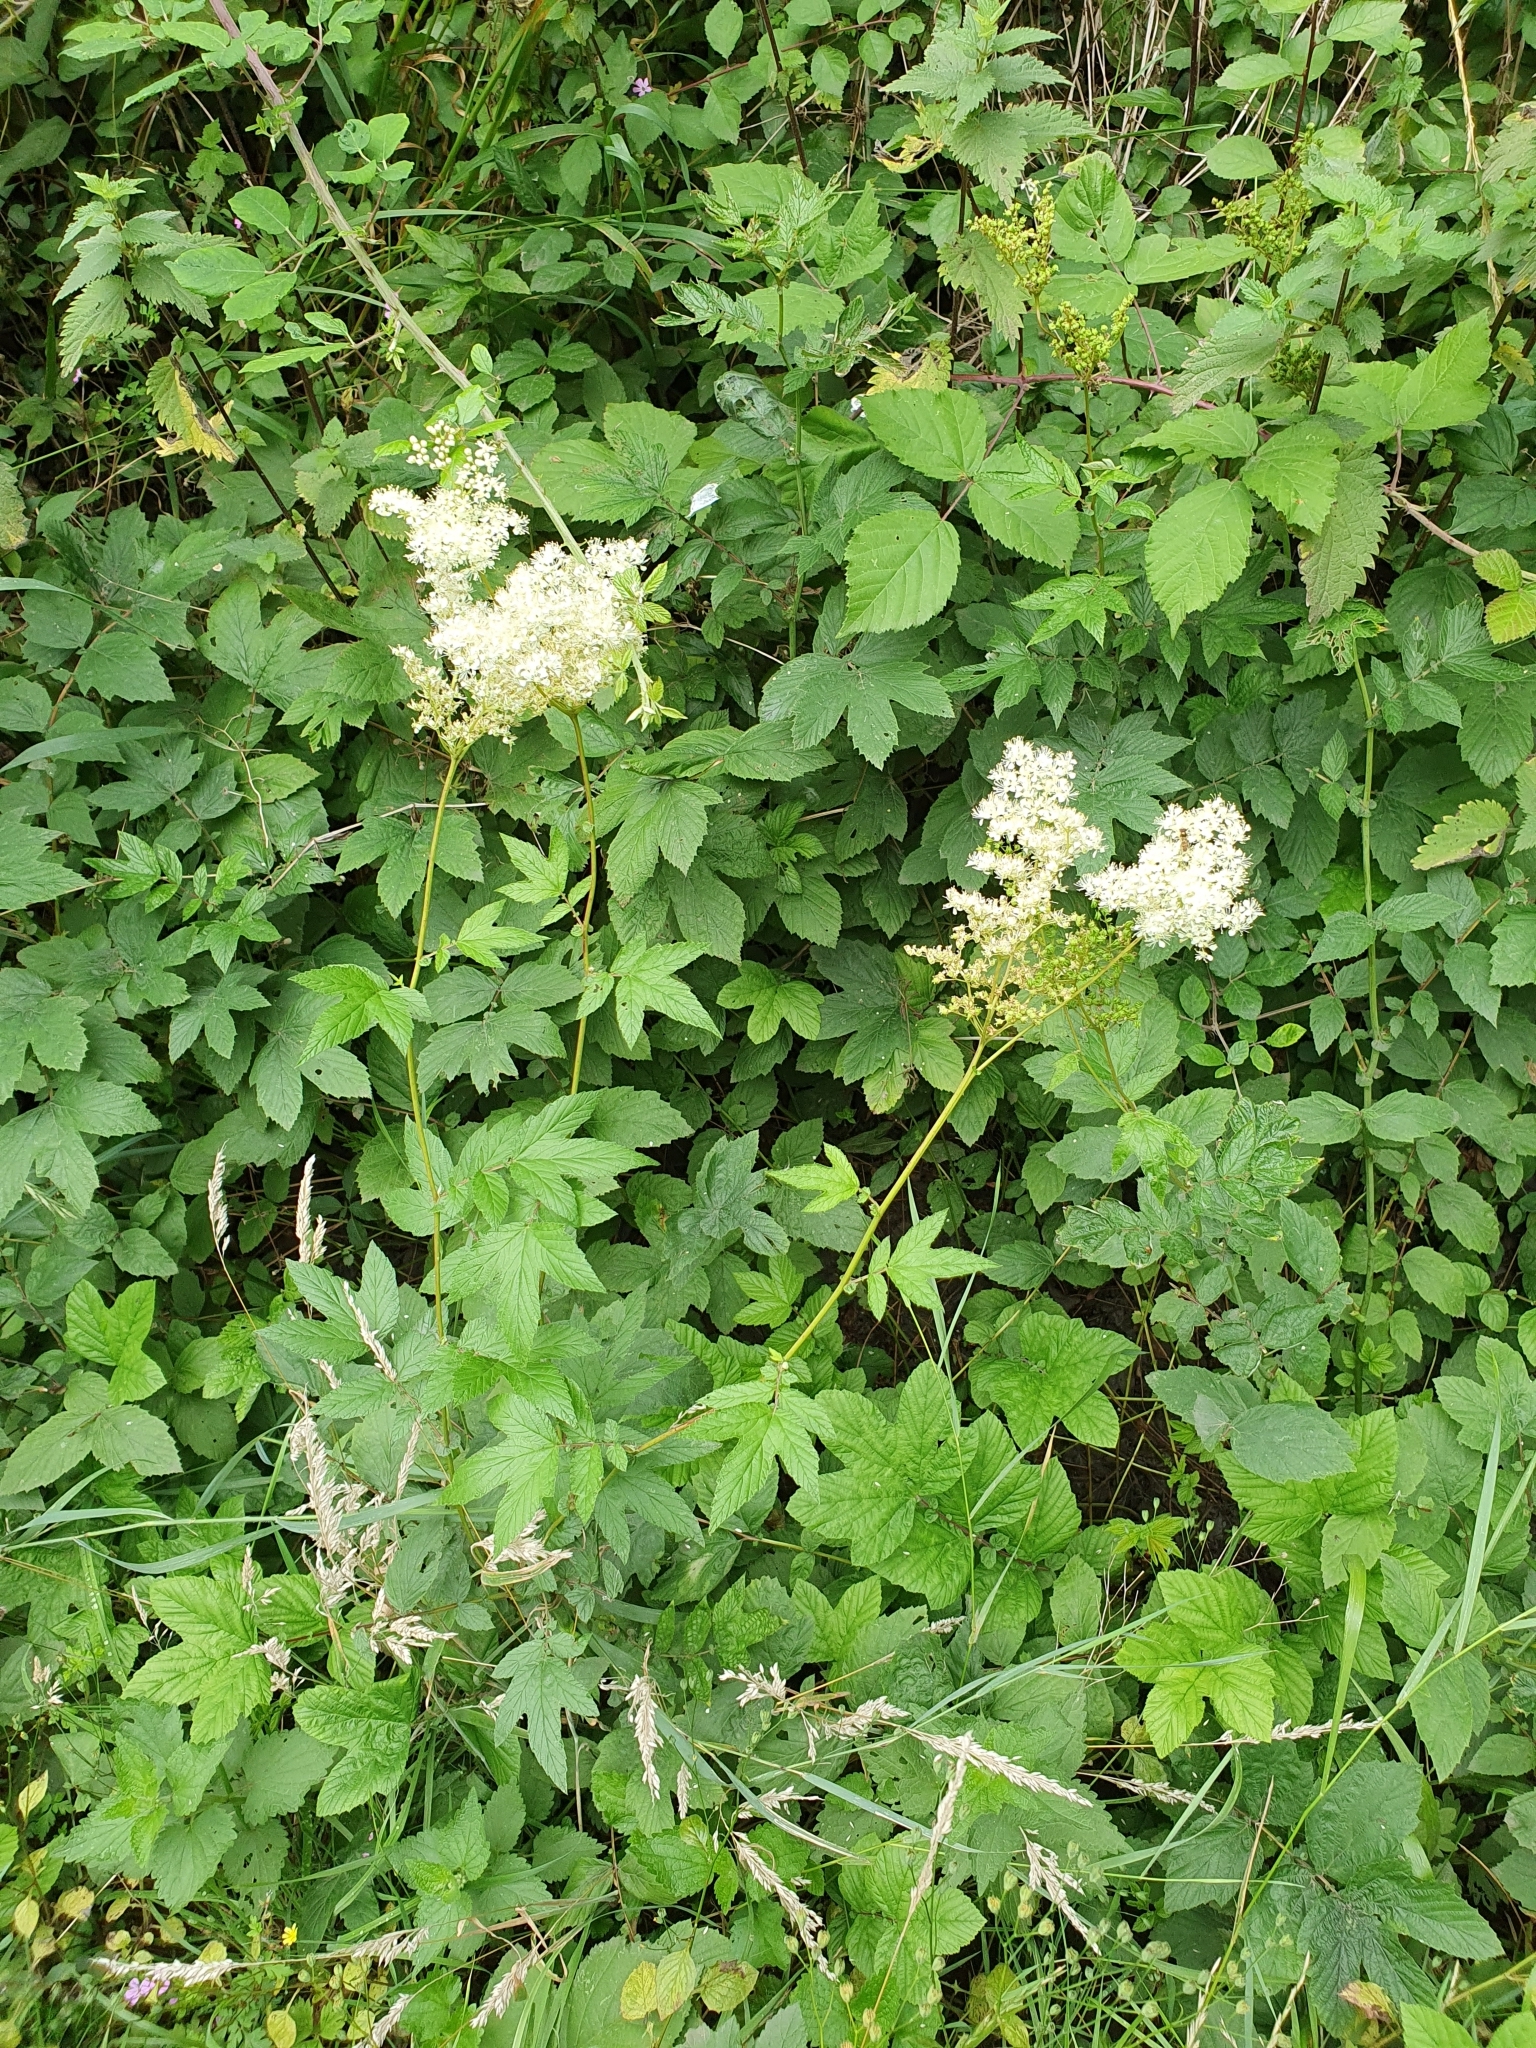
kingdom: Plantae
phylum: Tracheophyta
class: Magnoliopsida
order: Rosales
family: Rosaceae
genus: Filipendula
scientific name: Filipendula ulmaria
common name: Meadowsweet
